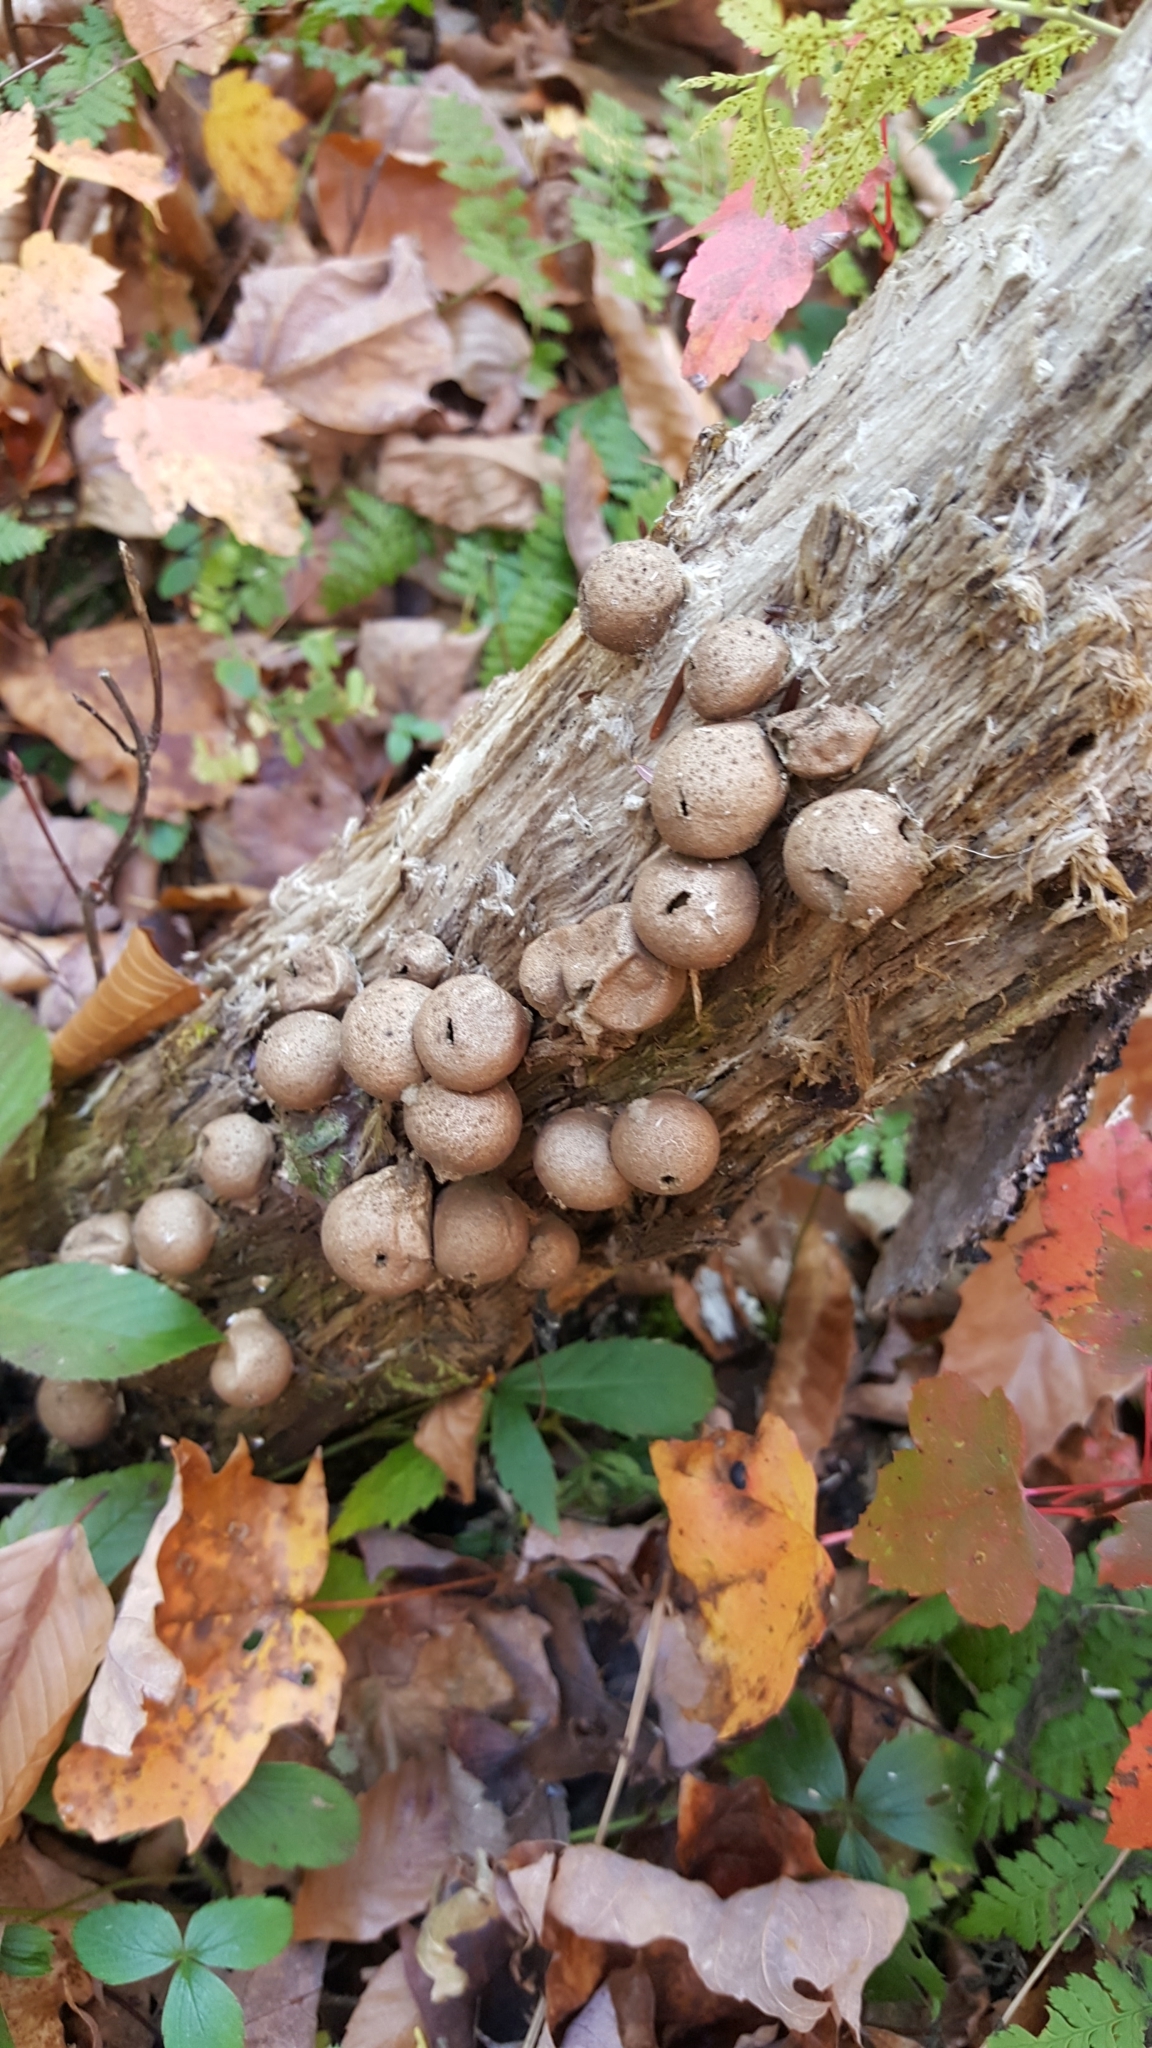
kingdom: Fungi
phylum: Basidiomycota
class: Agaricomycetes
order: Agaricales
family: Lycoperdaceae
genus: Apioperdon
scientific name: Apioperdon pyriforme
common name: Pear-shaped puffball
